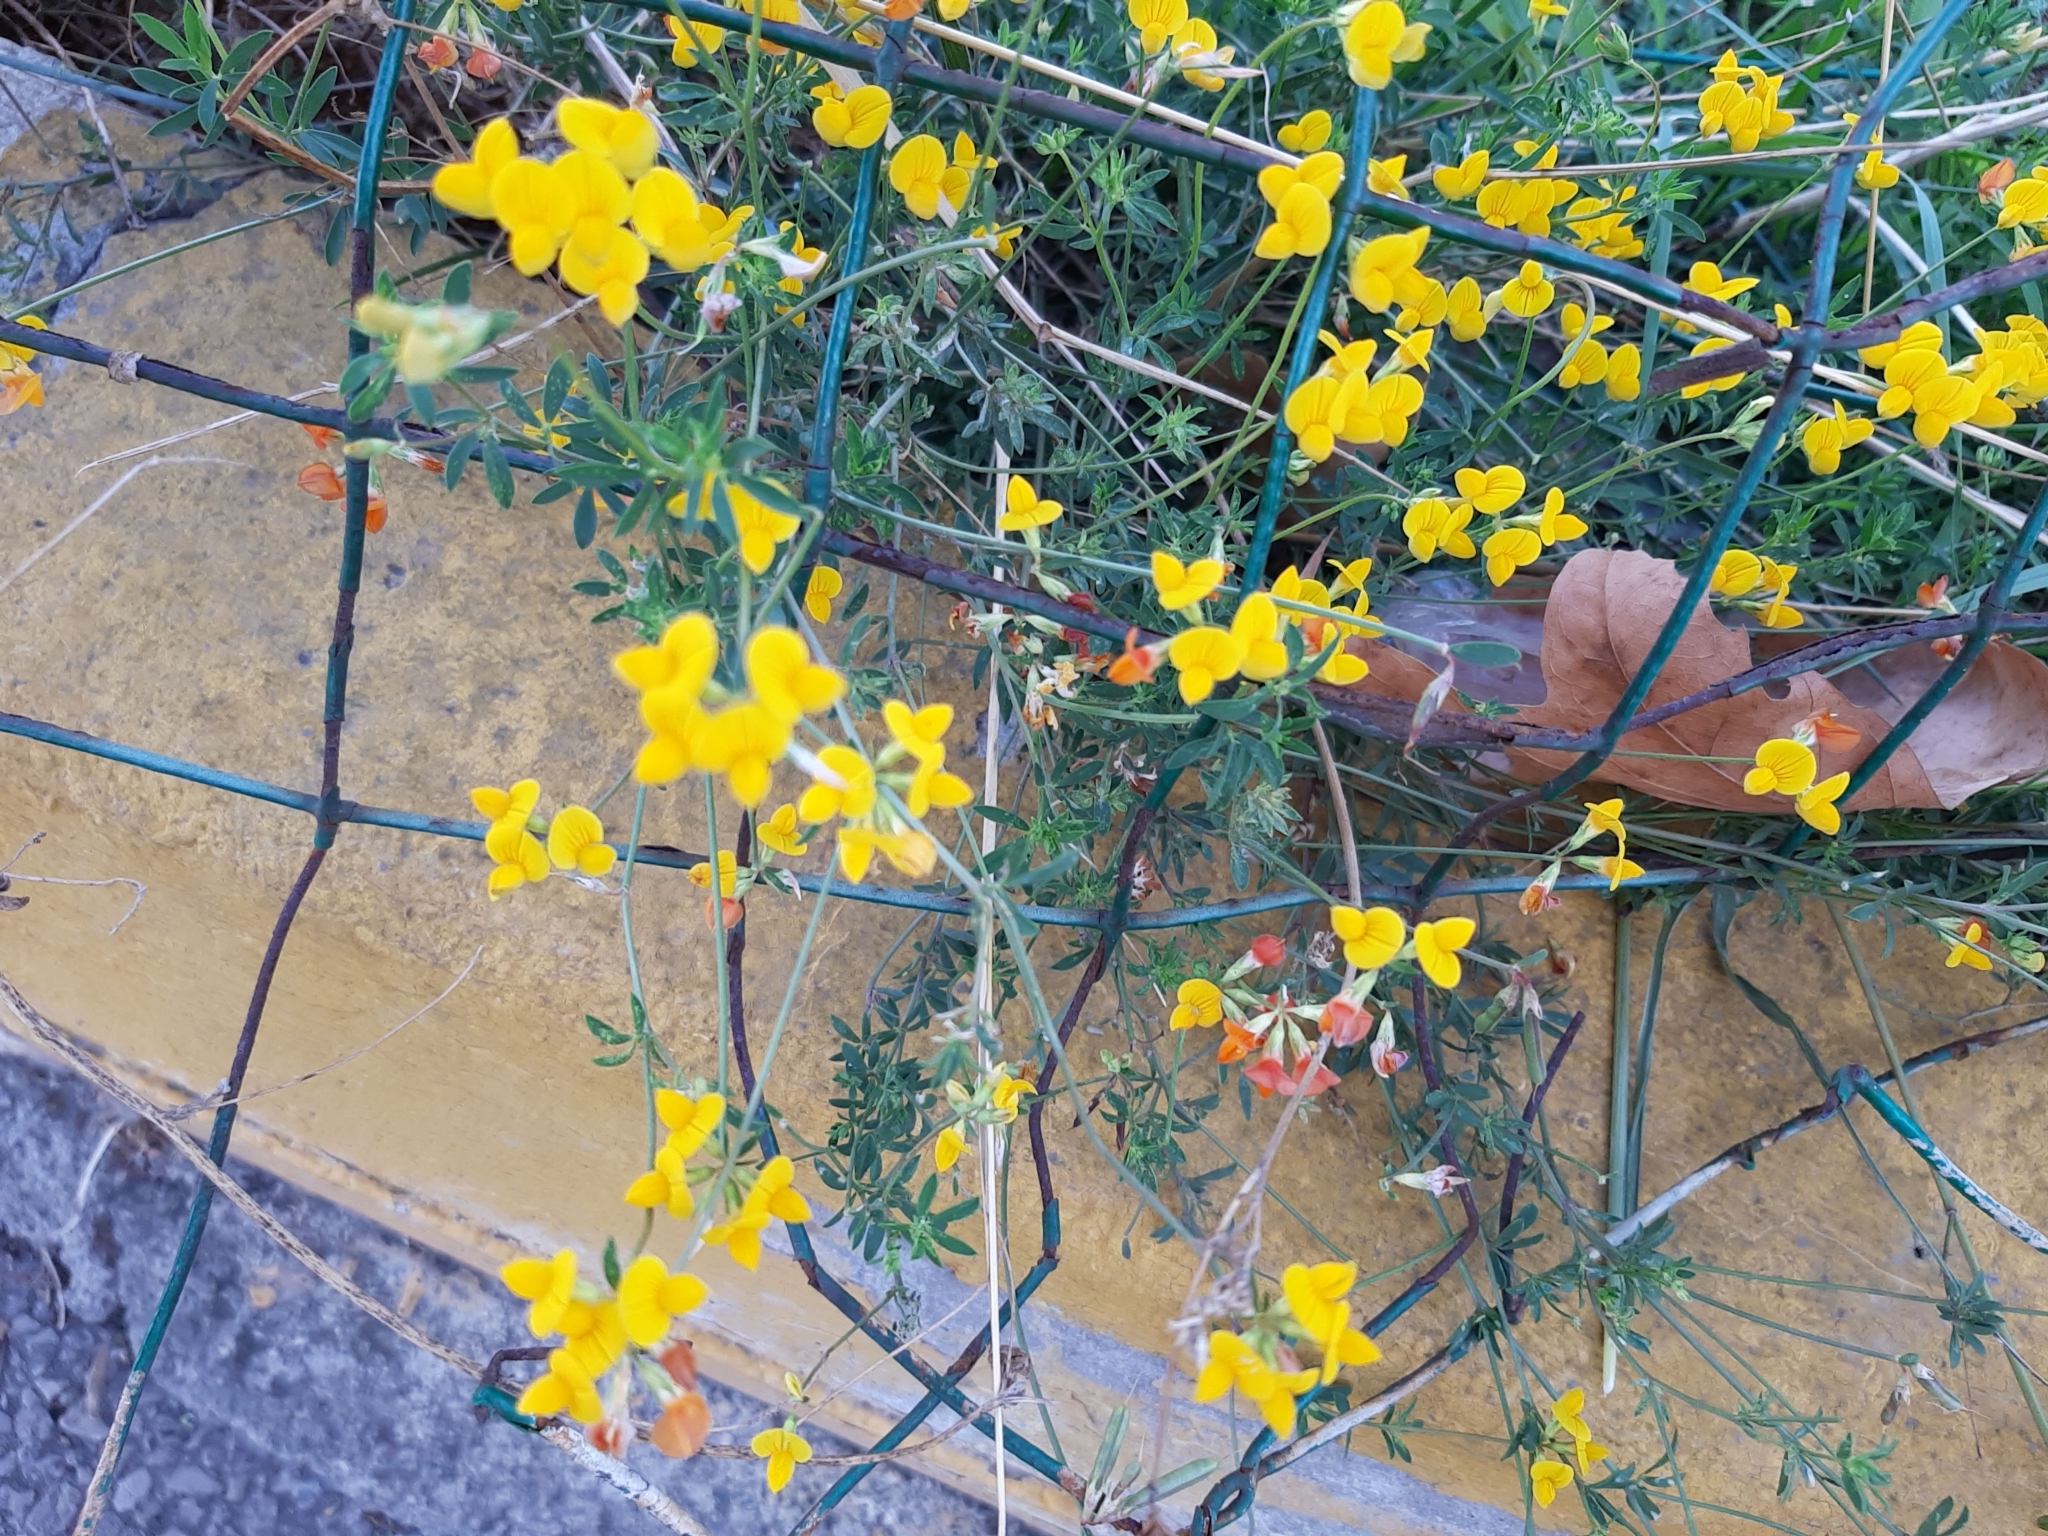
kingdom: Plantae
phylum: Tracheophyta
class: Magnoliopsida
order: Fabales
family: Fabaceae
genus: Lotus
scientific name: Lotus corniculatus
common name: Common bird's-foot-trefoil
